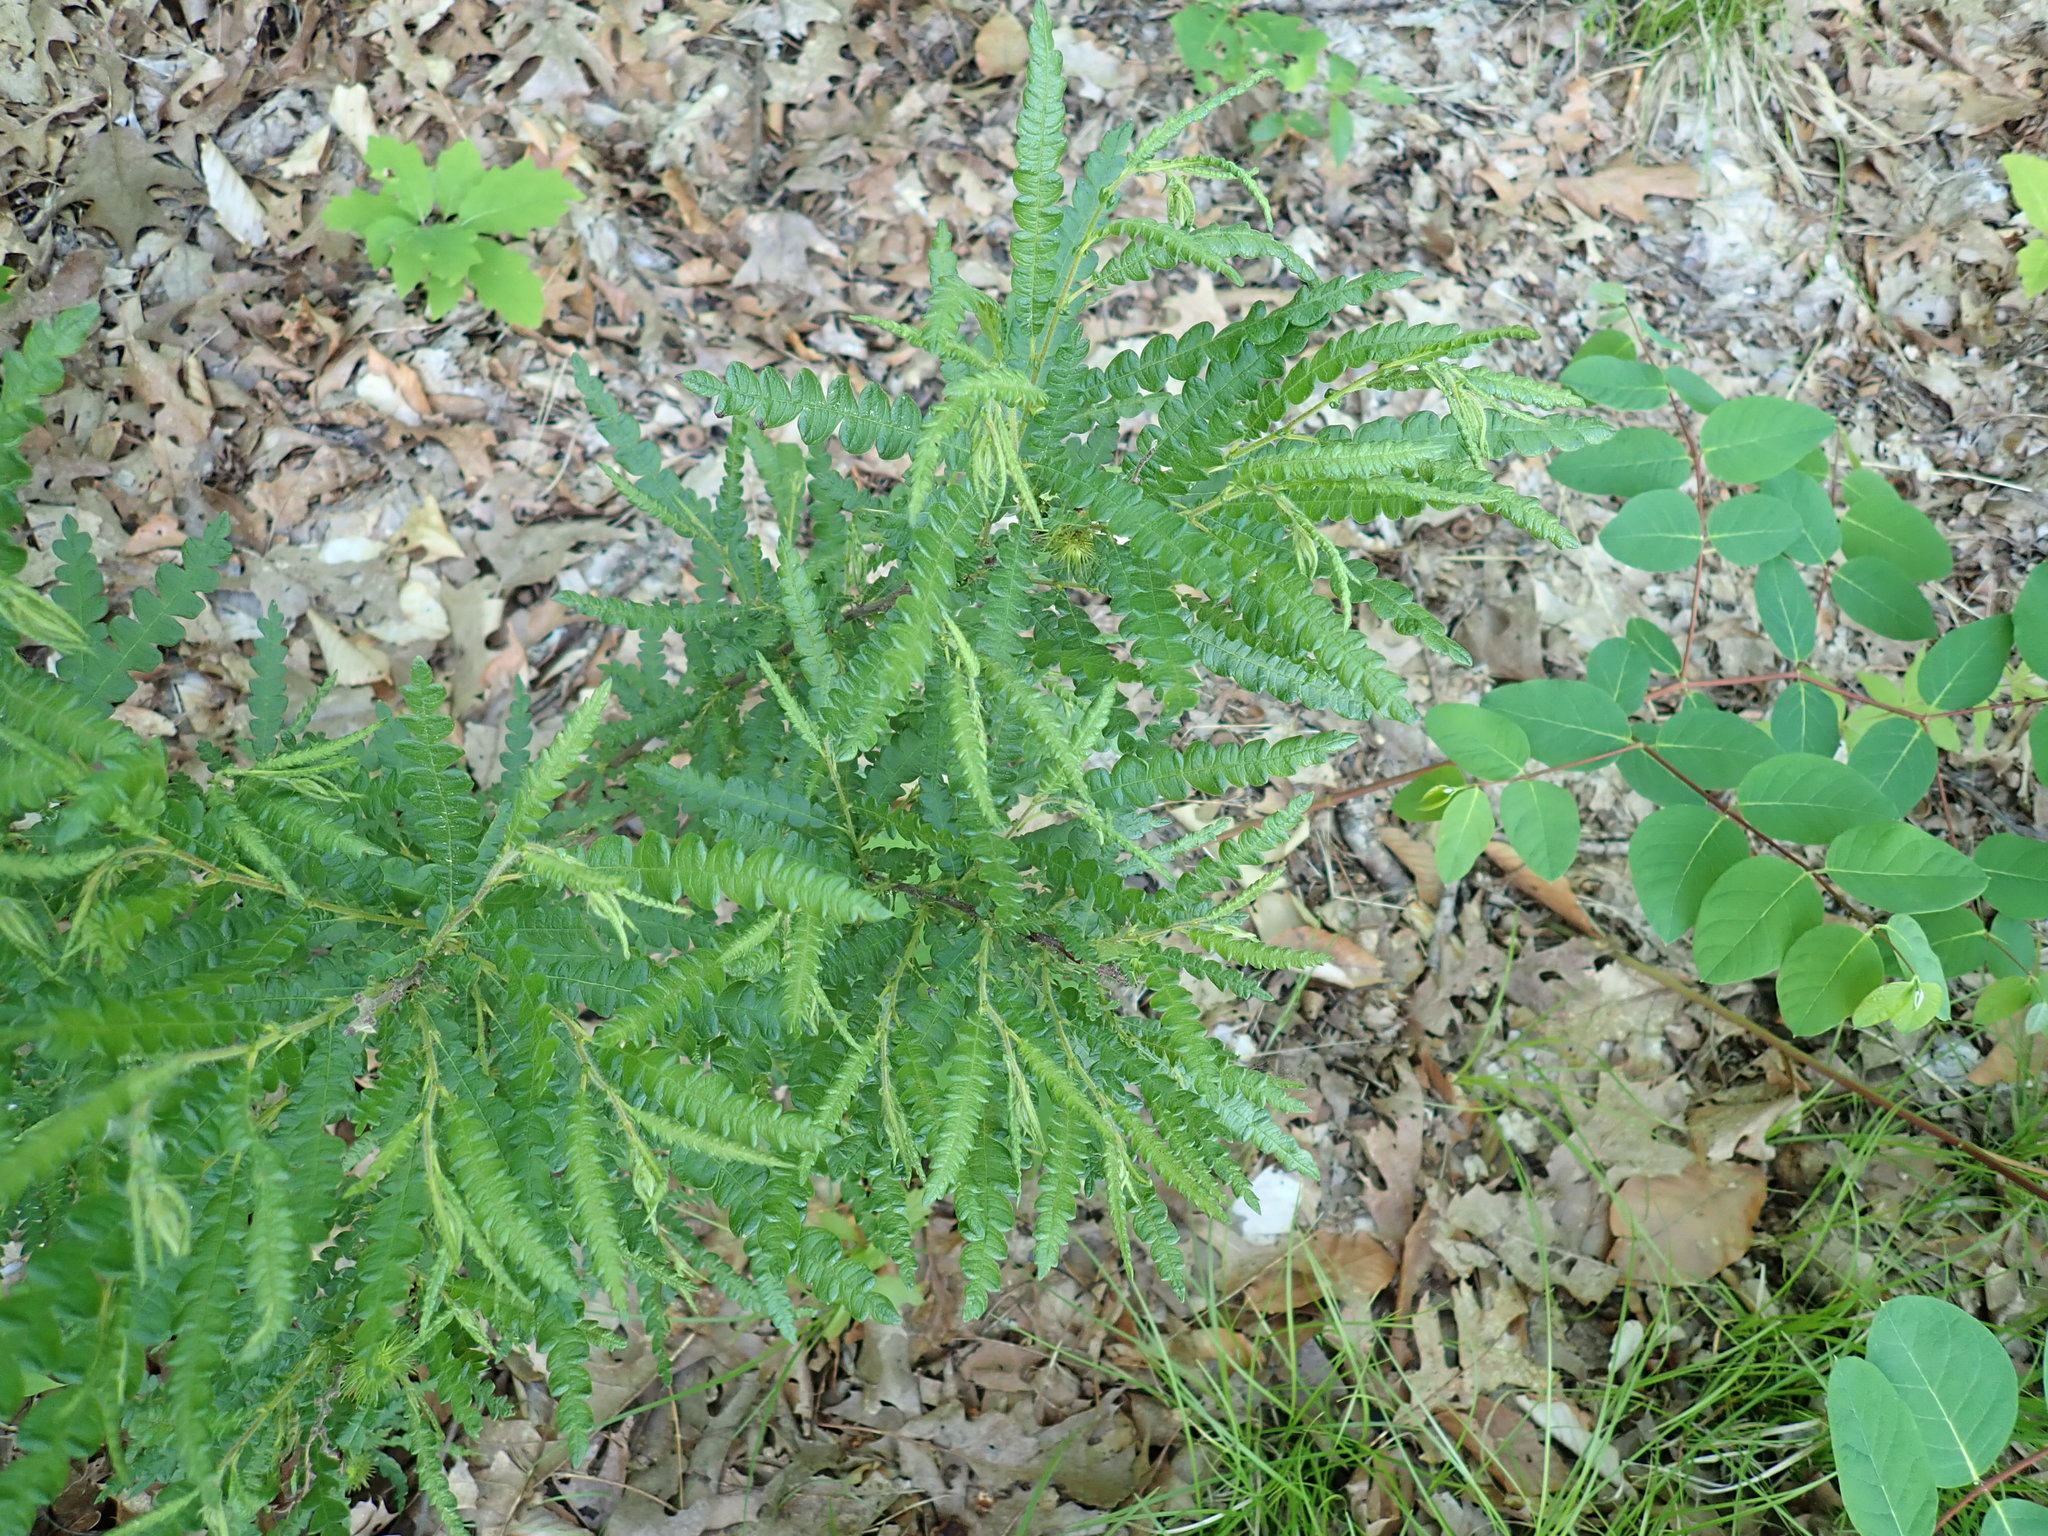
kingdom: Plantae
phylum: Tracheophyta
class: Magnoliopsida
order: Fagales
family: Myricaceae
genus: Comptonia
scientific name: Comptonia peregrina
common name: Sweet-fern
